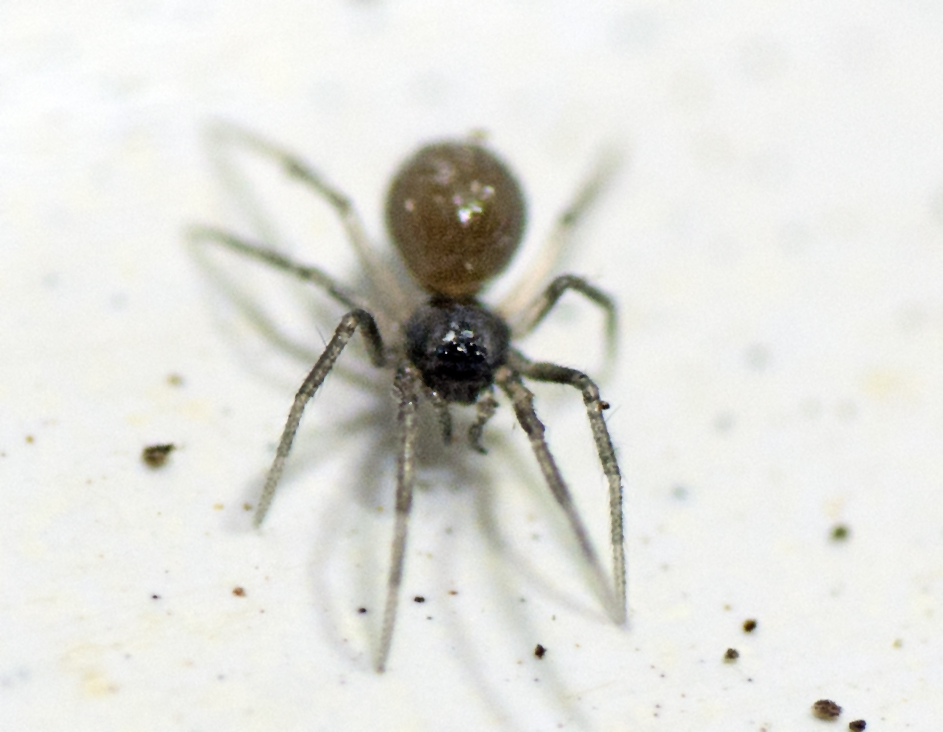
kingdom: Animalia
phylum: Arthropoda
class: Arachnida
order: Araneae
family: Linyphiidae
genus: Ostearius
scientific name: Ostearius melanopygius
